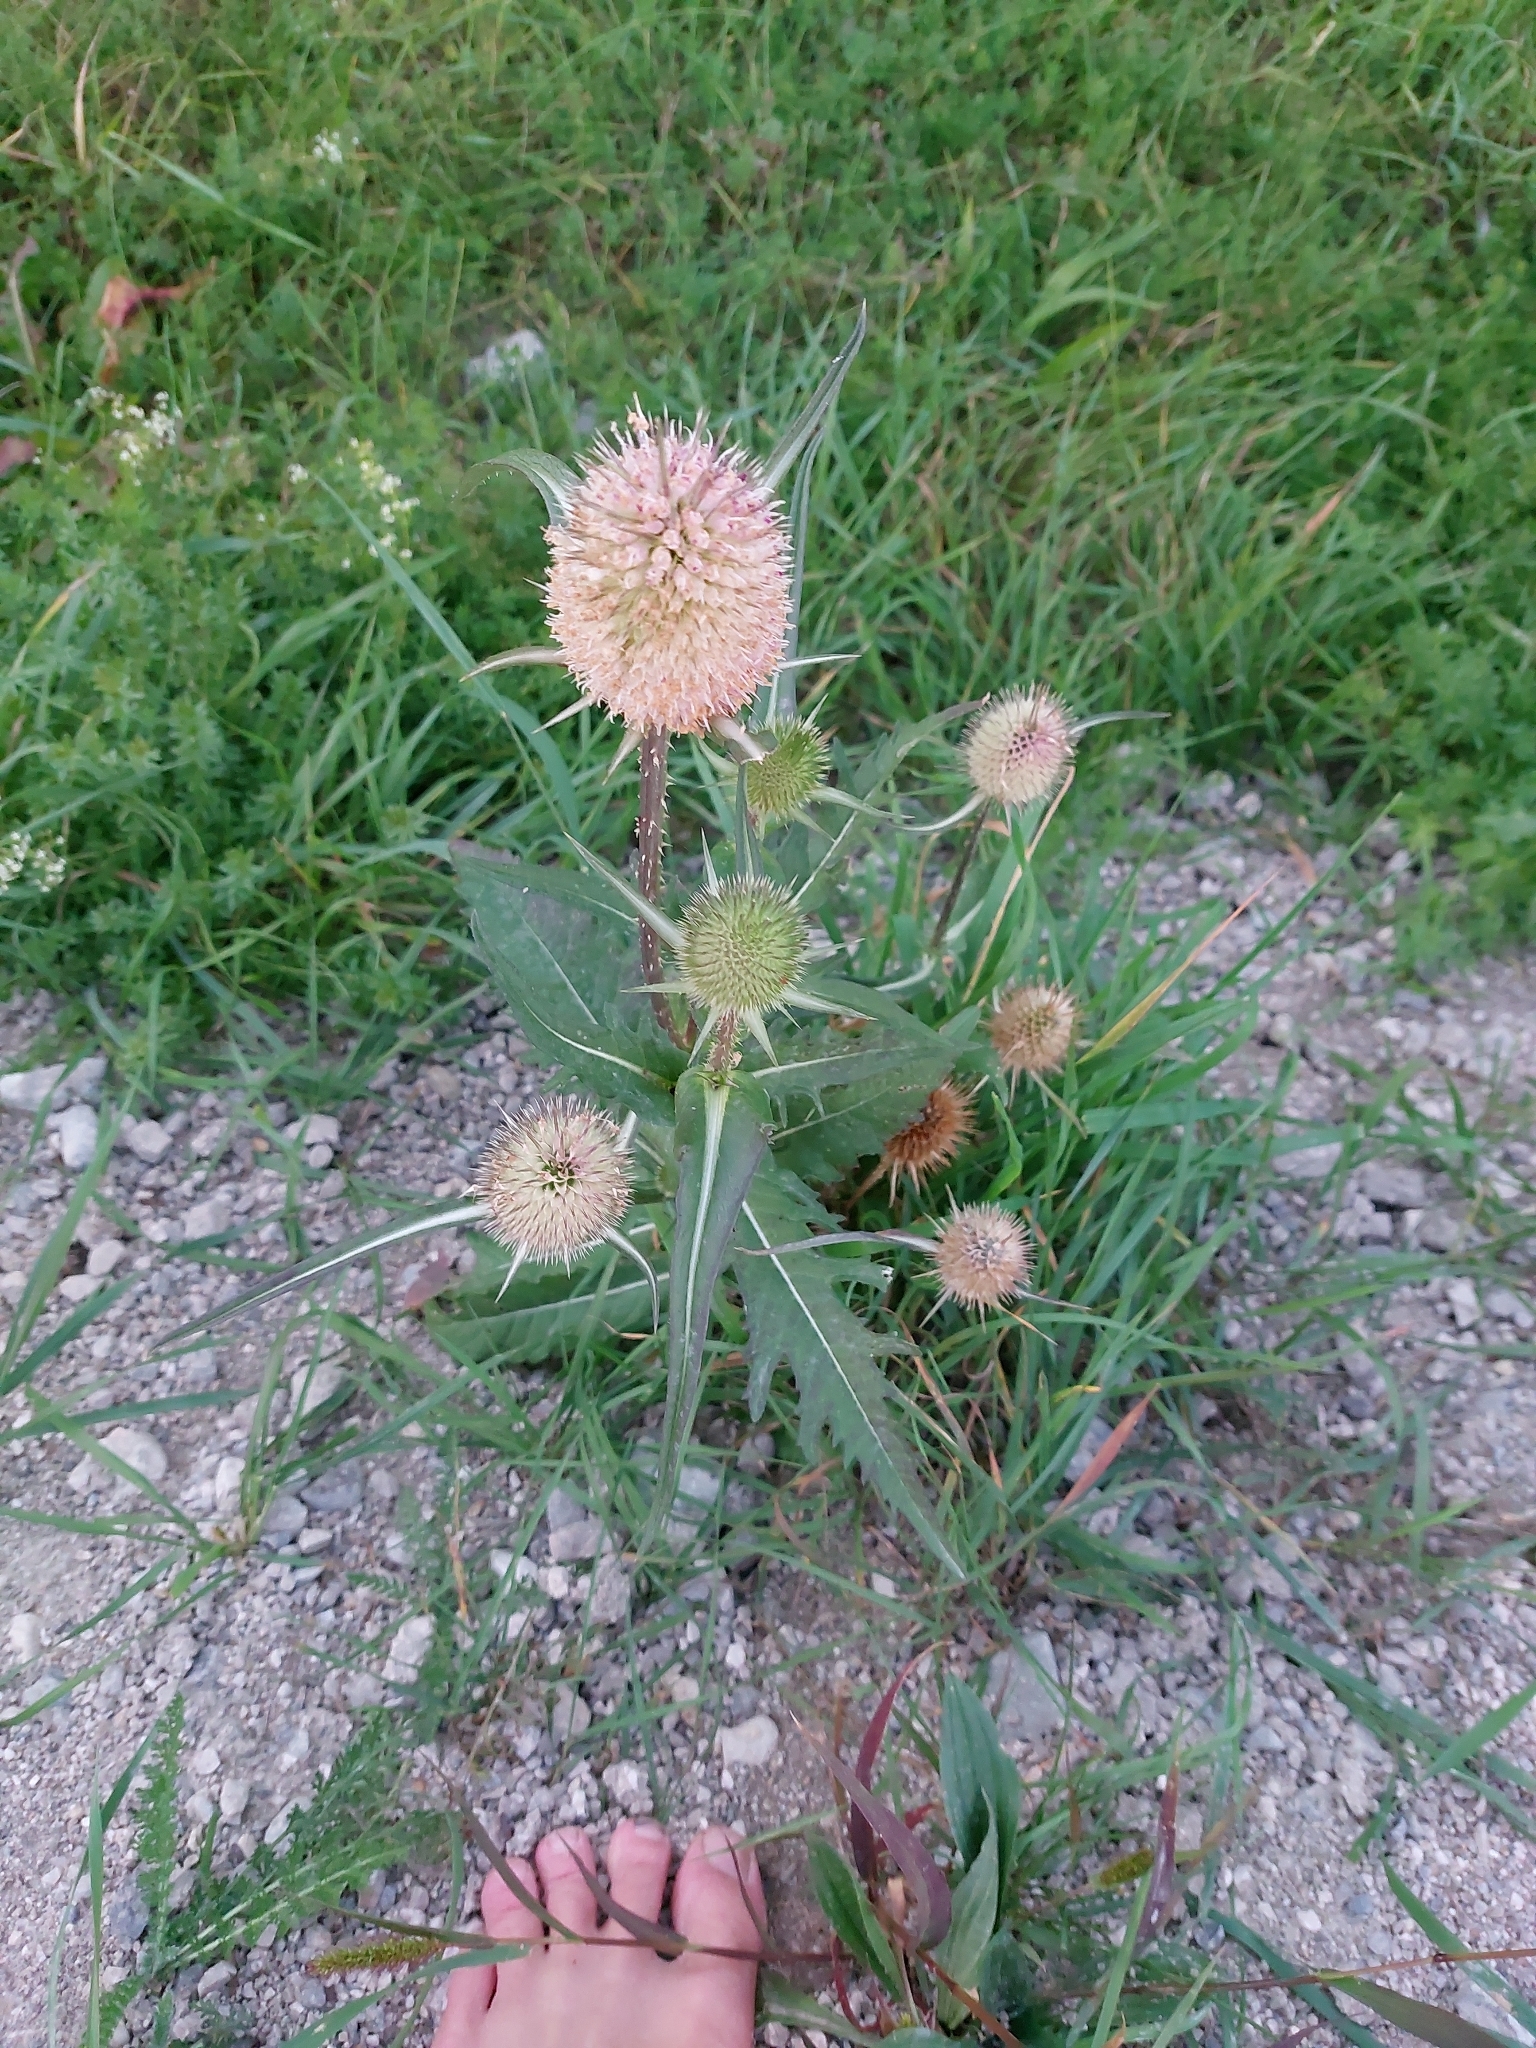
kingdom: Plantae
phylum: Tracheophyta
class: Magnoliopsida
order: Dipsacales
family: Caprifoliaceae
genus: Dipsacus
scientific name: Dipsacus laciniatus
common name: Cut-leaved teasel
